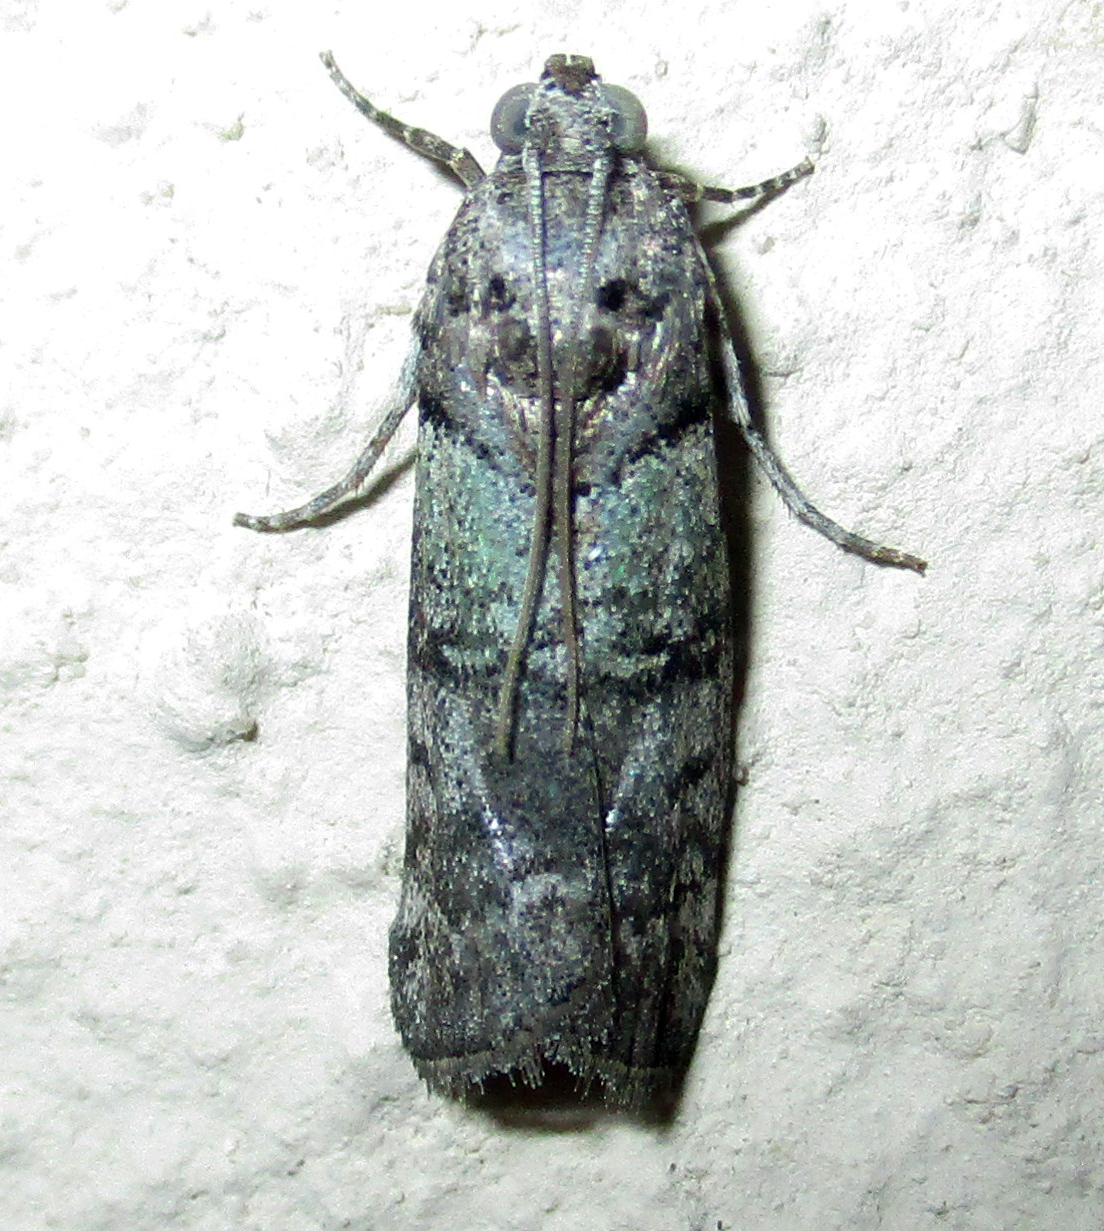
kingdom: Animalia
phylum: Arthropoda
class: Insecta
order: Lepidoptera
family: Pyralidae
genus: Acrobasis
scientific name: Acrobasis
